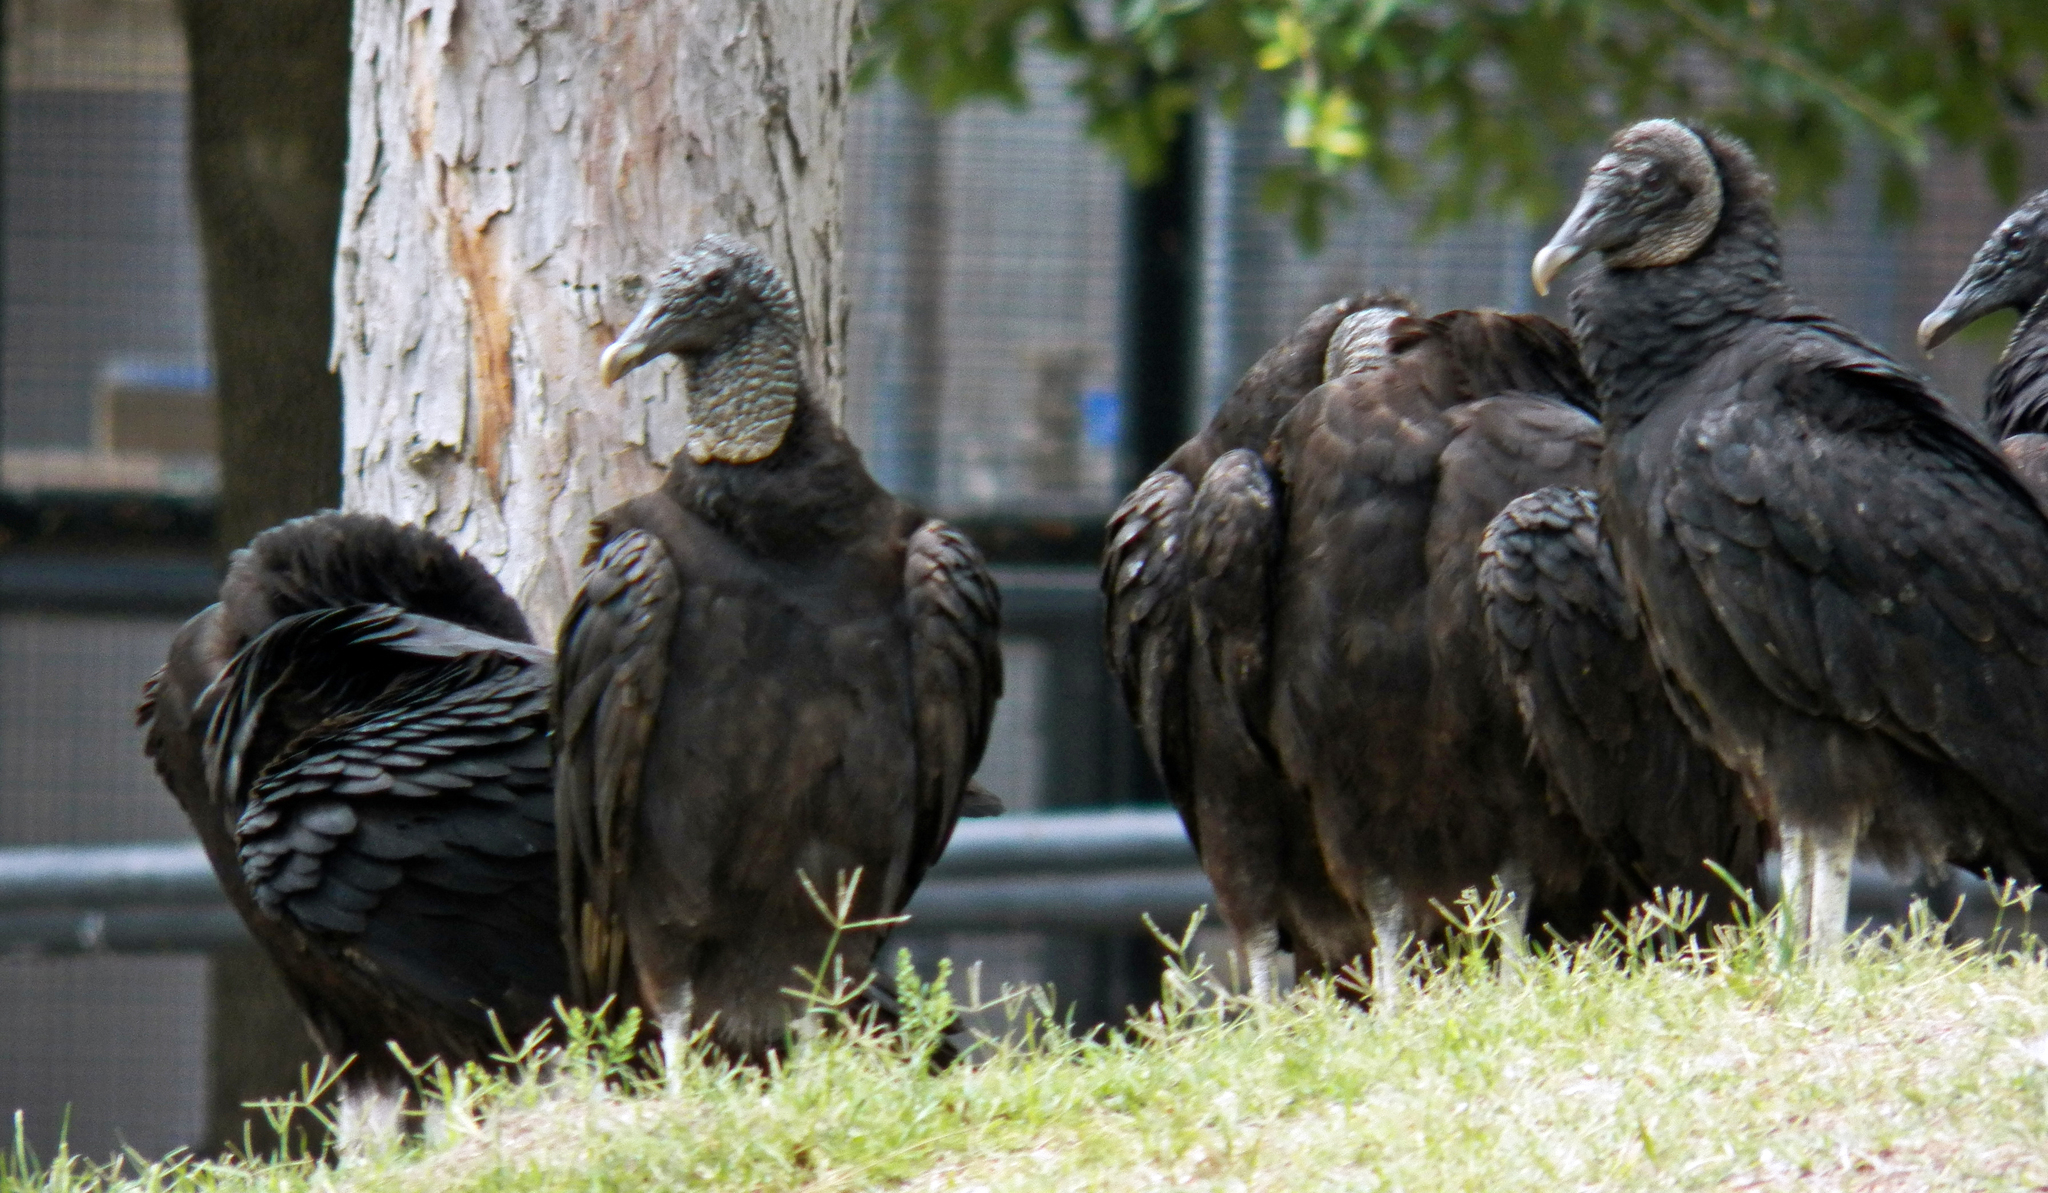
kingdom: Animalia
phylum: Chordata
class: Aves
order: Accipitriformes
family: Cathartidae
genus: Coragyps
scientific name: Coragyps atratus
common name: Black vulture
